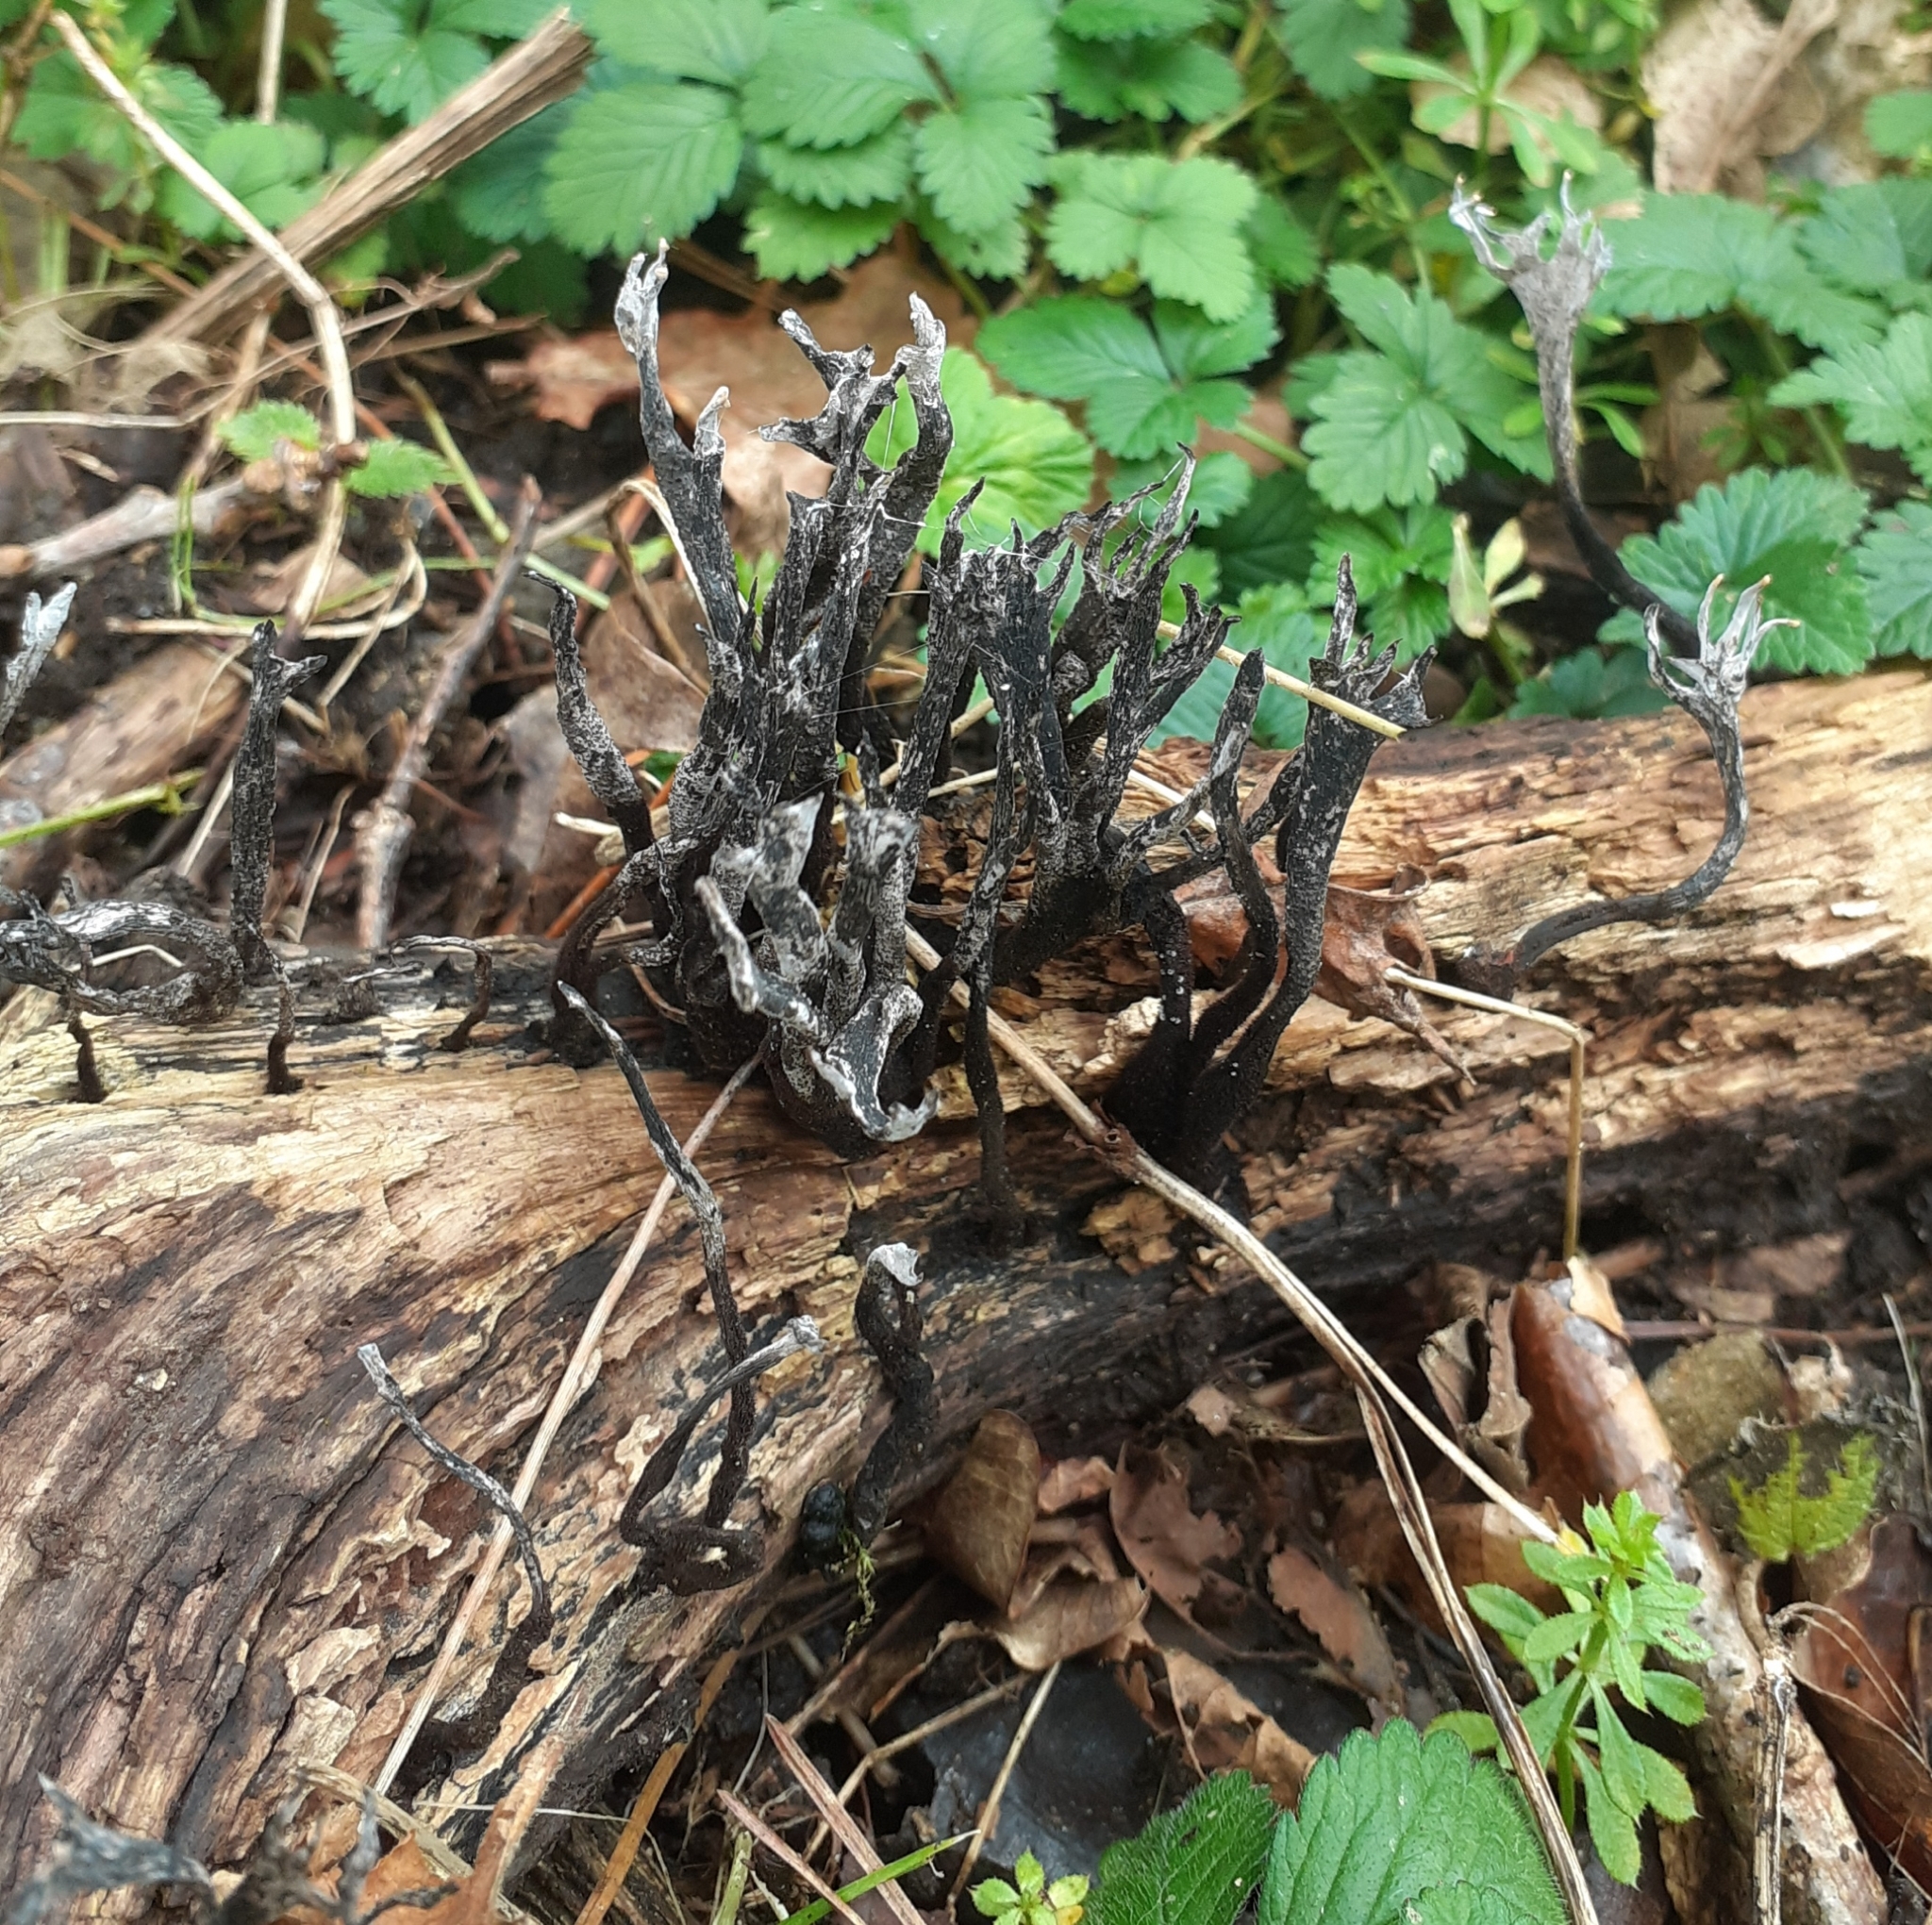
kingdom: Fungi
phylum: Ascomycota
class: Sordariomycetes
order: Xylariales
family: Xylariaceae
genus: Xylaria
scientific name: Xylaria hypoxylon
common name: Candle-snuff fungus
